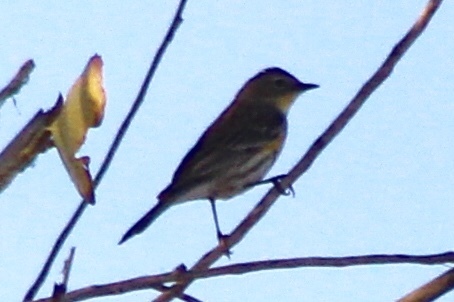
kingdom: Animalia
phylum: Chordata
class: Aves
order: Passeriformes
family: Parulidae
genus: Setophaga
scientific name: Setophaga auduboni
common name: Audubon's warbler
